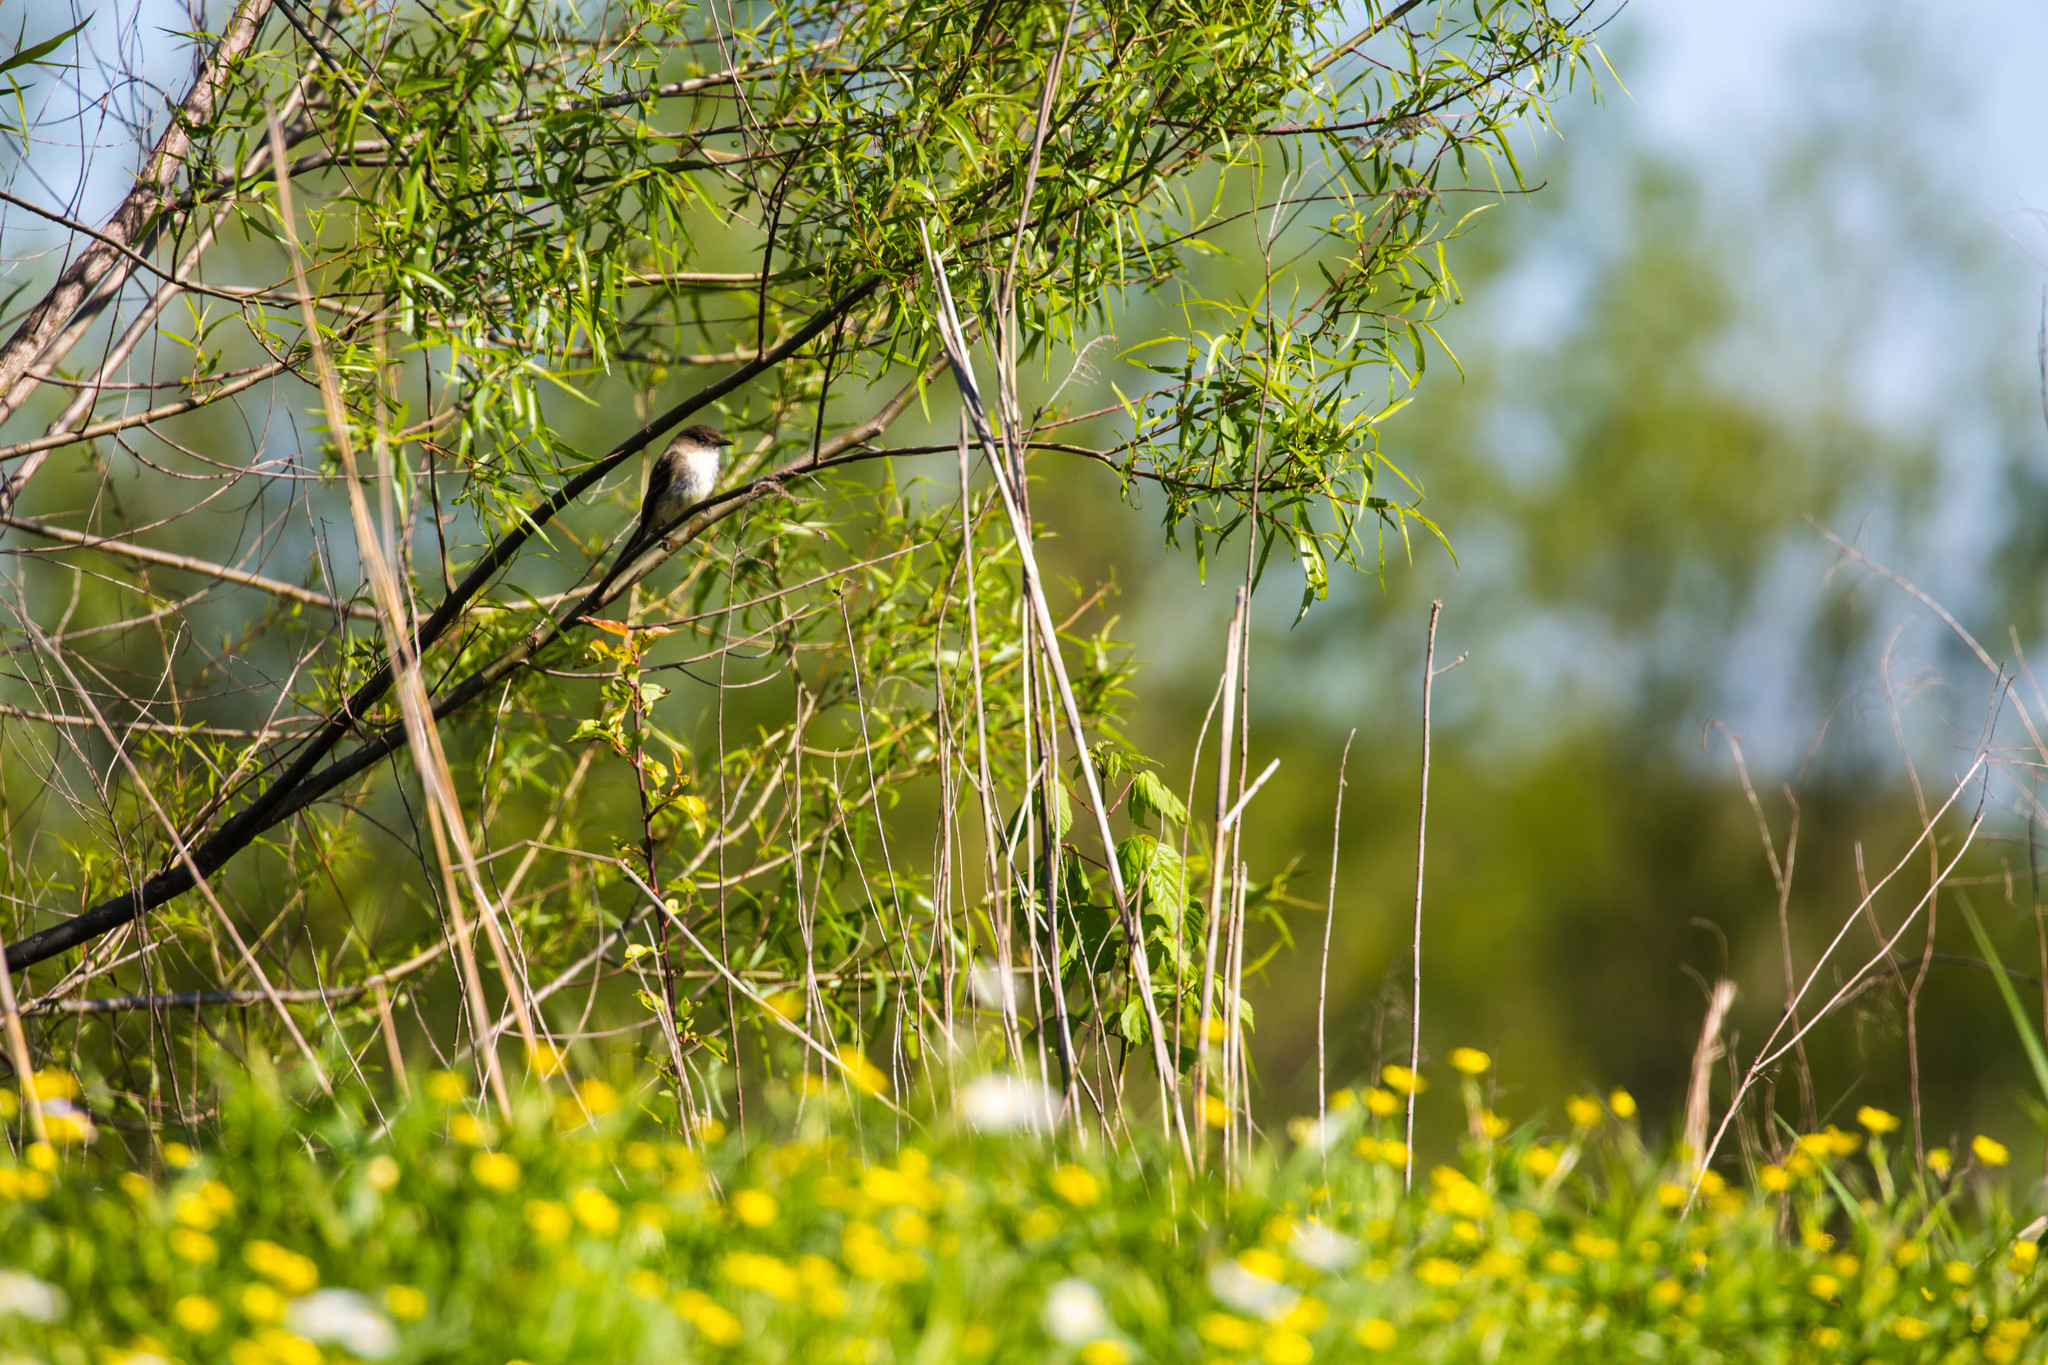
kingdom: Animalia
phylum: Chordata
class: Aves
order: Passeriformes
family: Tyrannidae
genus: Sayornis
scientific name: Sayornis phoebe
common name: Eastern phoebe
